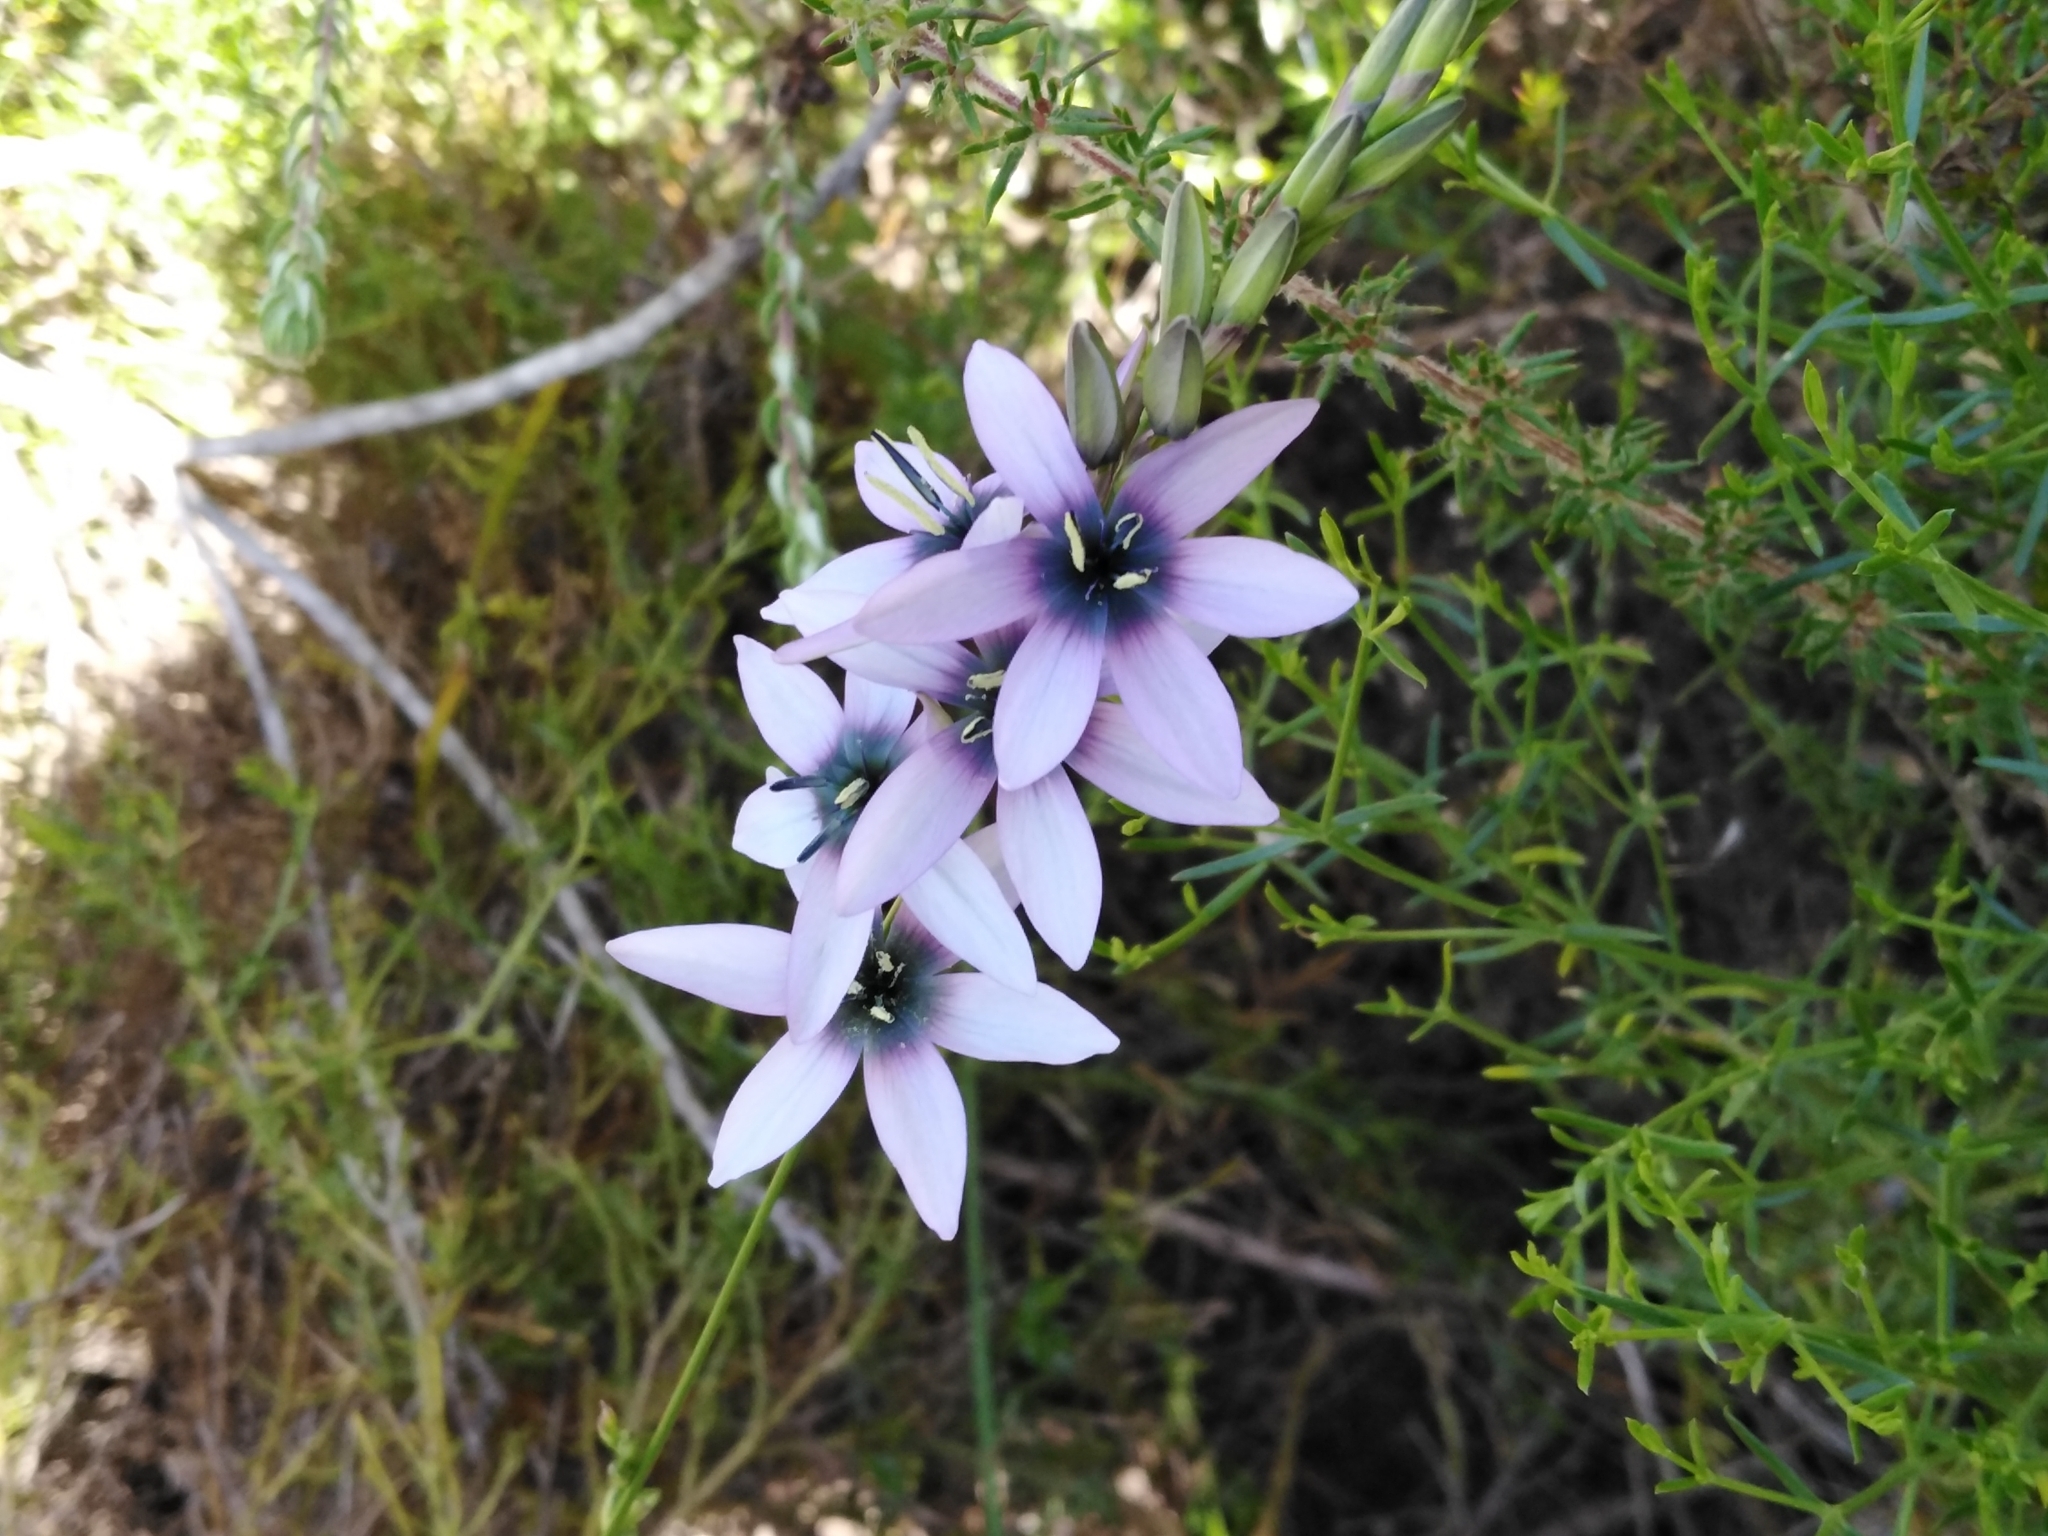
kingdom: Plantae
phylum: Tracheophyta
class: Liliopsida
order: Asparagales
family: Iridaceae
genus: Ixia
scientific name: Ixia polystachya
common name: White-and-yellow-flower cornlily
